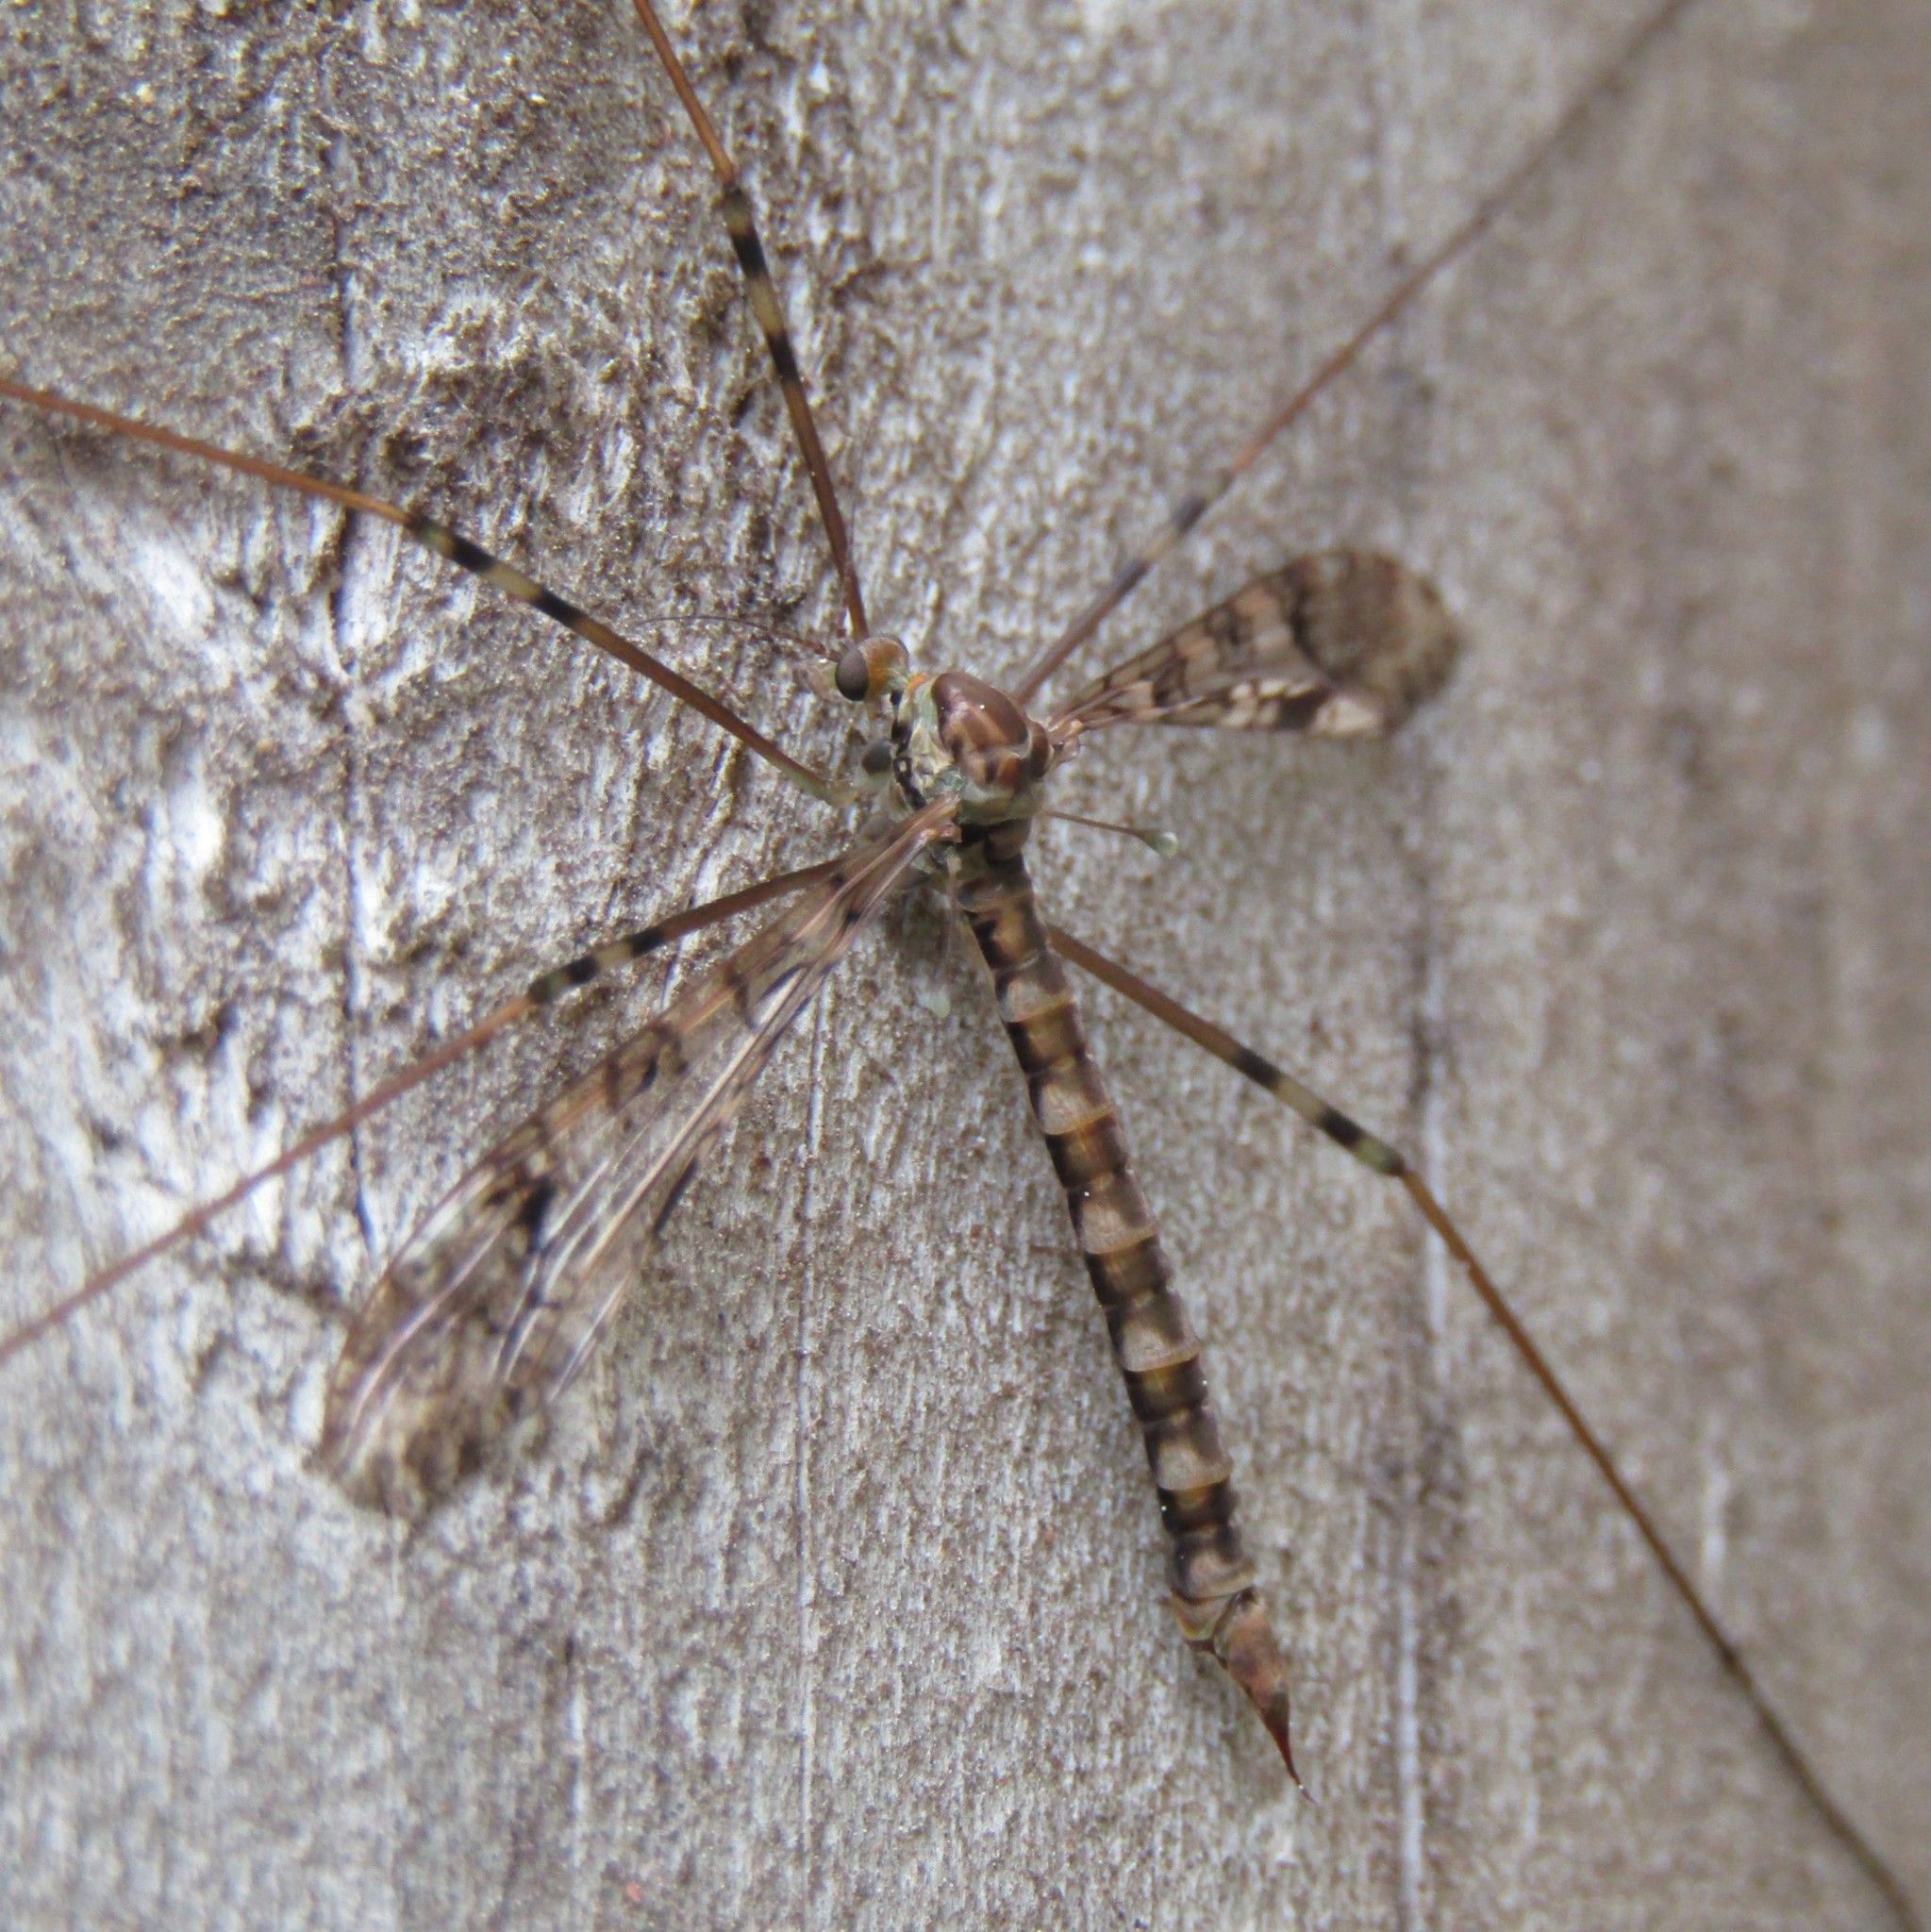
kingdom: Animalia
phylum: Arthropoda
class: Insecta
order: Diptera
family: Limoniidae
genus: Austrolimnophila
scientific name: Austrolimnophila argus
